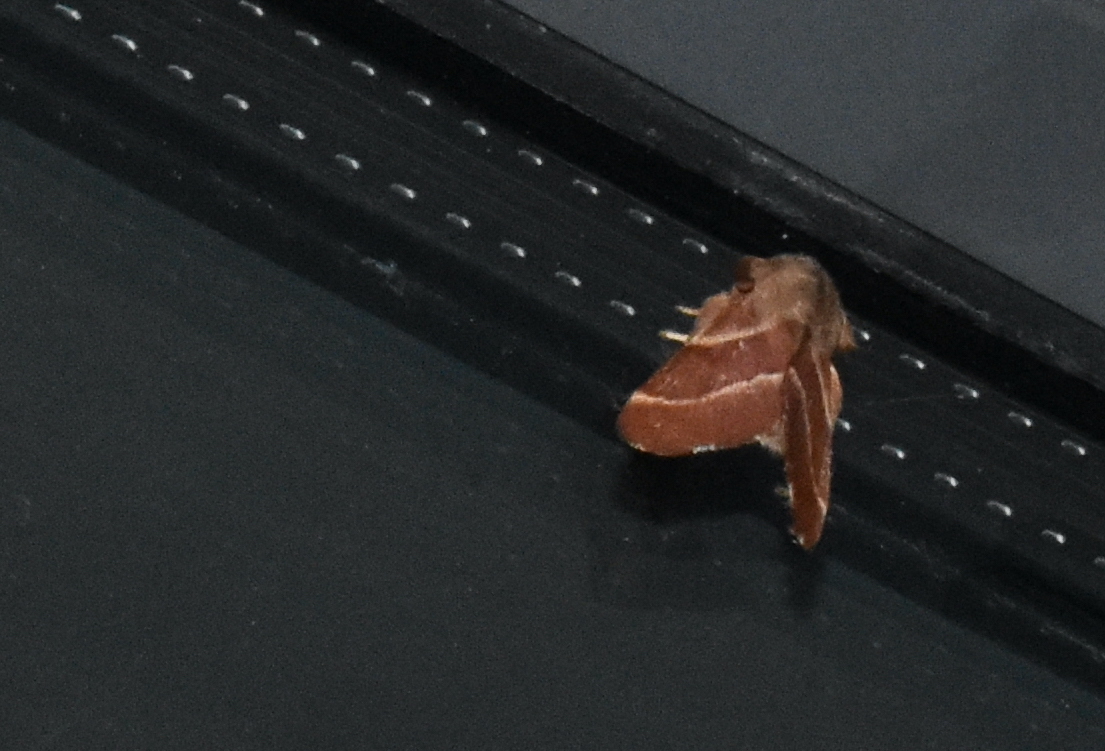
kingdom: Animalia
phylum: Arthropoda
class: Insecta
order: Lepidoptera
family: Lasiocampidae
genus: Malacosoma
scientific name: Malacosoma californica
